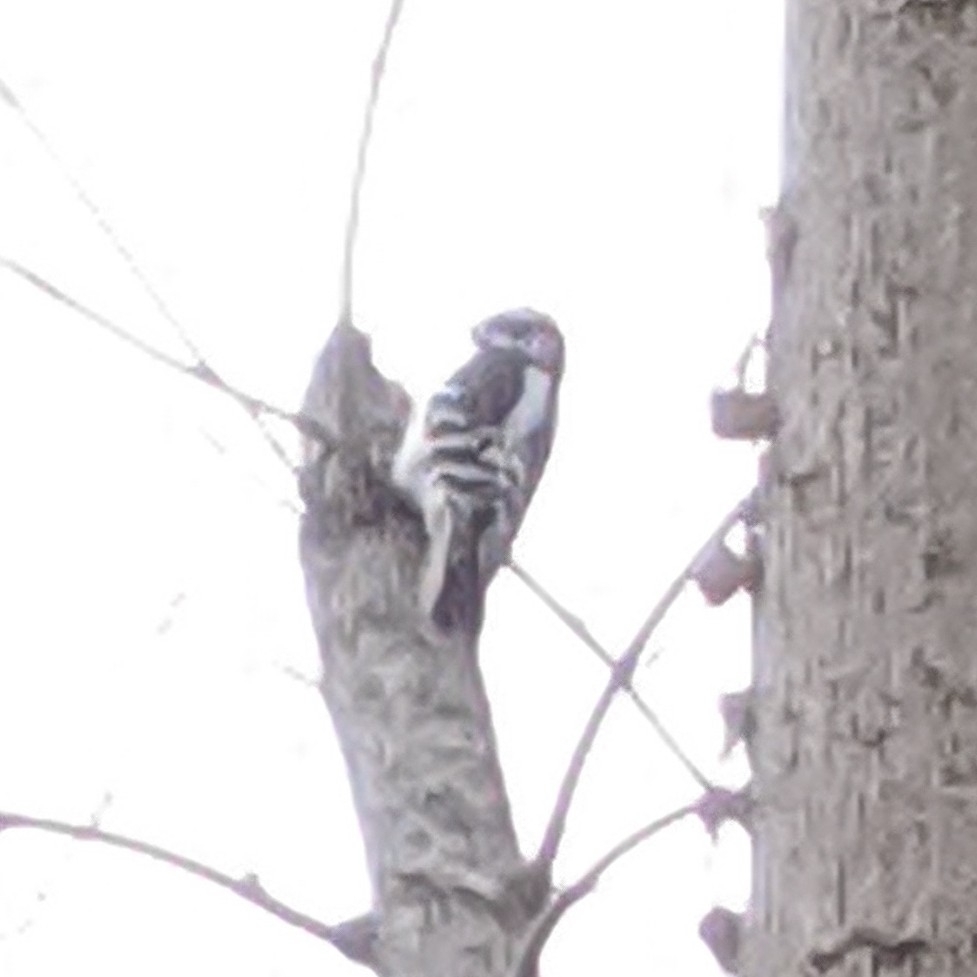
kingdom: Animalia
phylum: Chordata
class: Aves
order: Piciformes
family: Picidae
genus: Dryobates
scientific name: Dryobates pubescens
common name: Downy woodpecker
